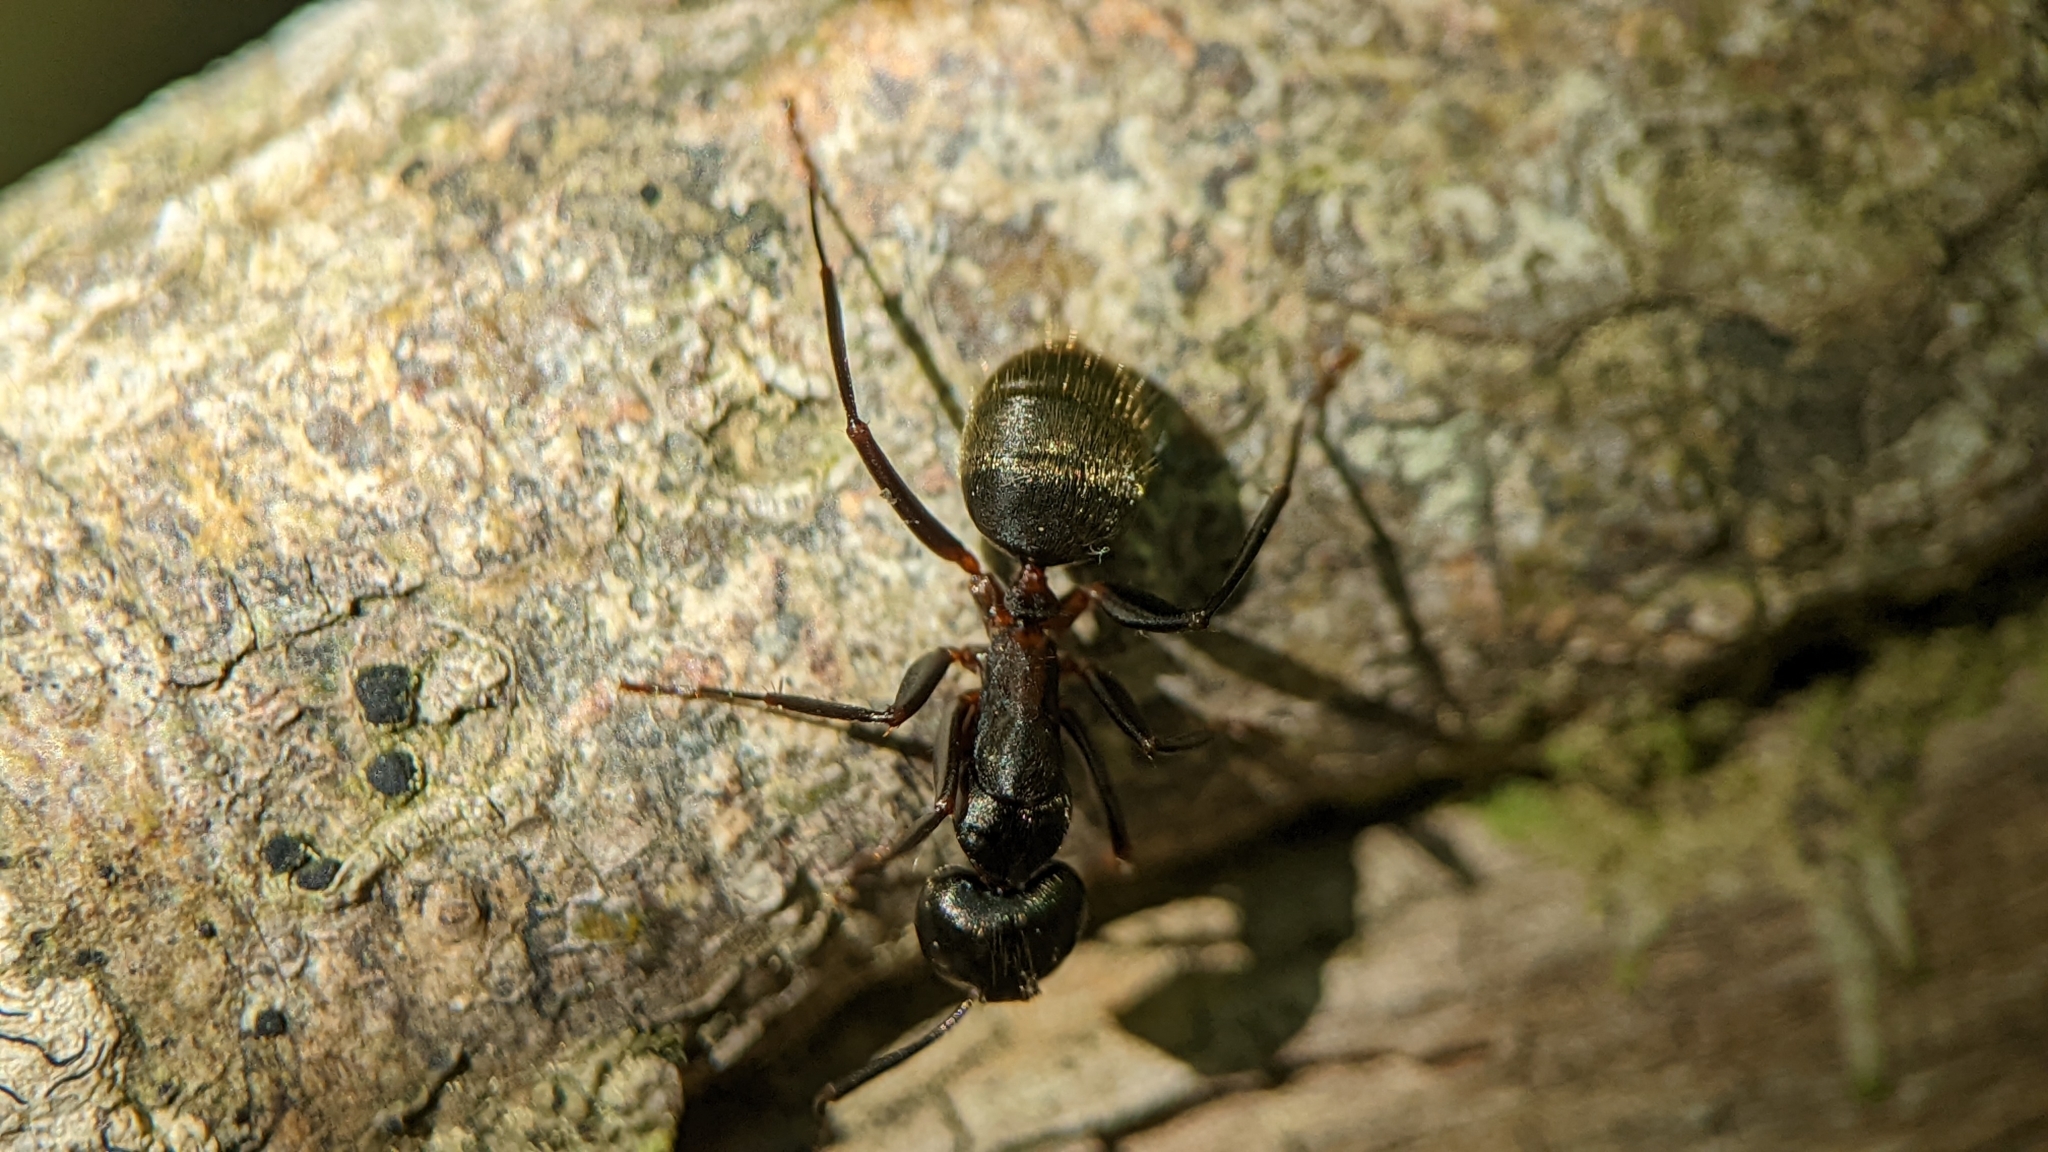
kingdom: Animalia
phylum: Arthropoda
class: Insecta
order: Hymenoptera
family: Formicidae
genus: Camponotus
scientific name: Camponotus pennsylvanicus
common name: Black carpenter ant
